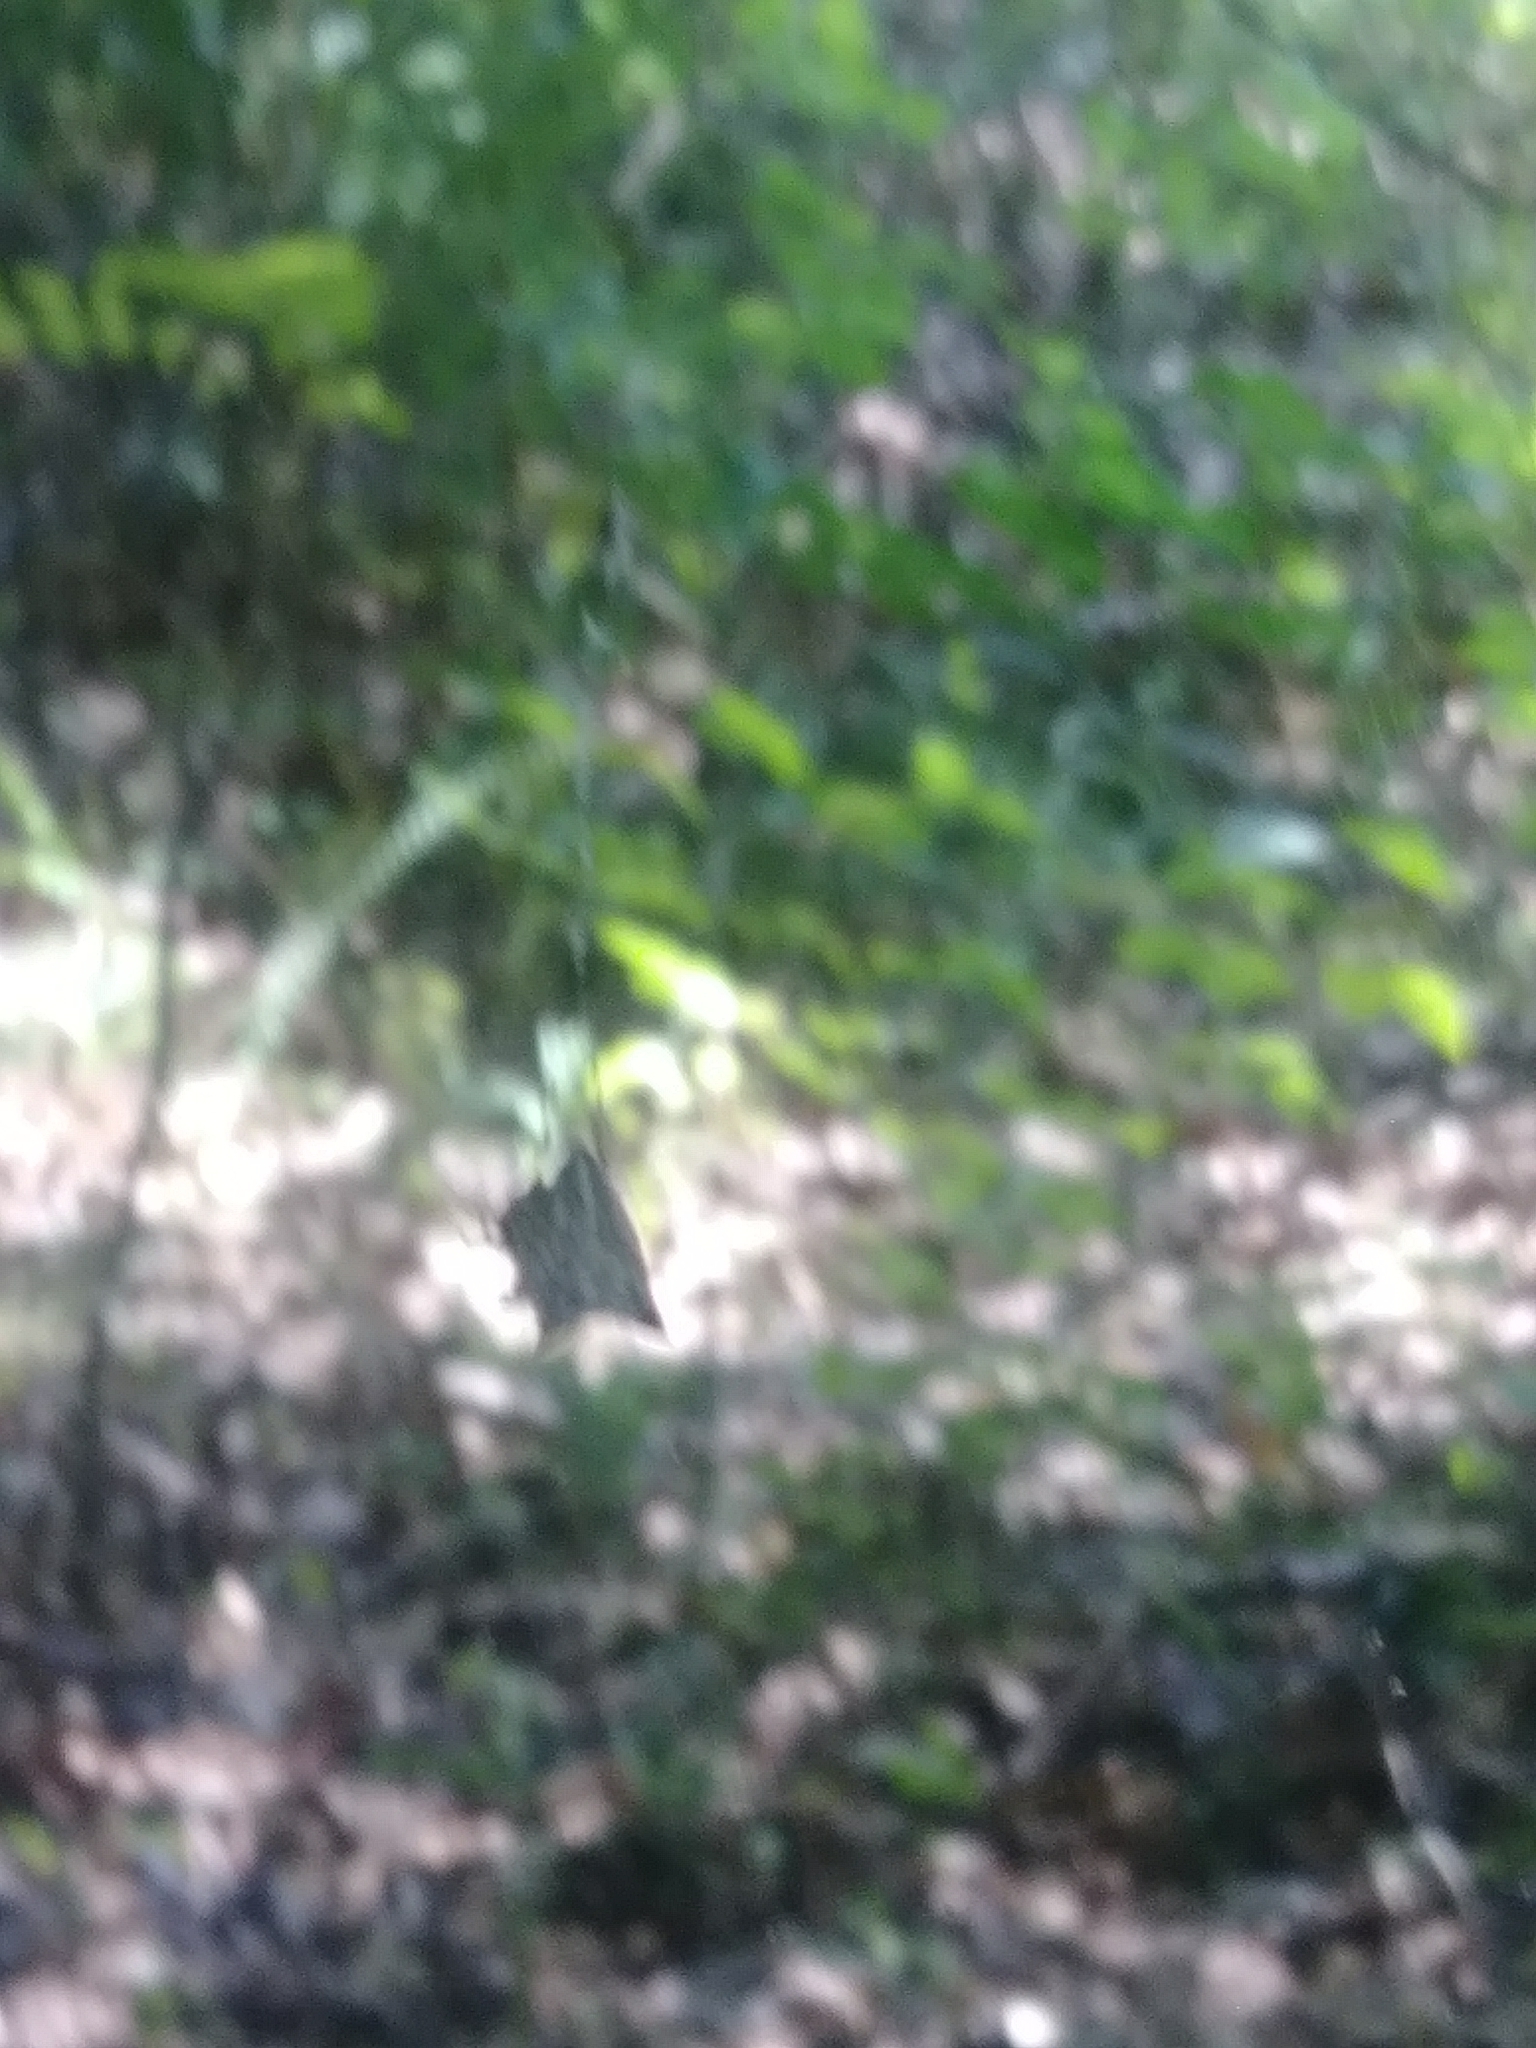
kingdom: Animalia
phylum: Arthropoda
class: Arachnida
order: Araneae
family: Araneidae
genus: Micrathena
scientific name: Micrathena gracilis
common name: Orb weavers
